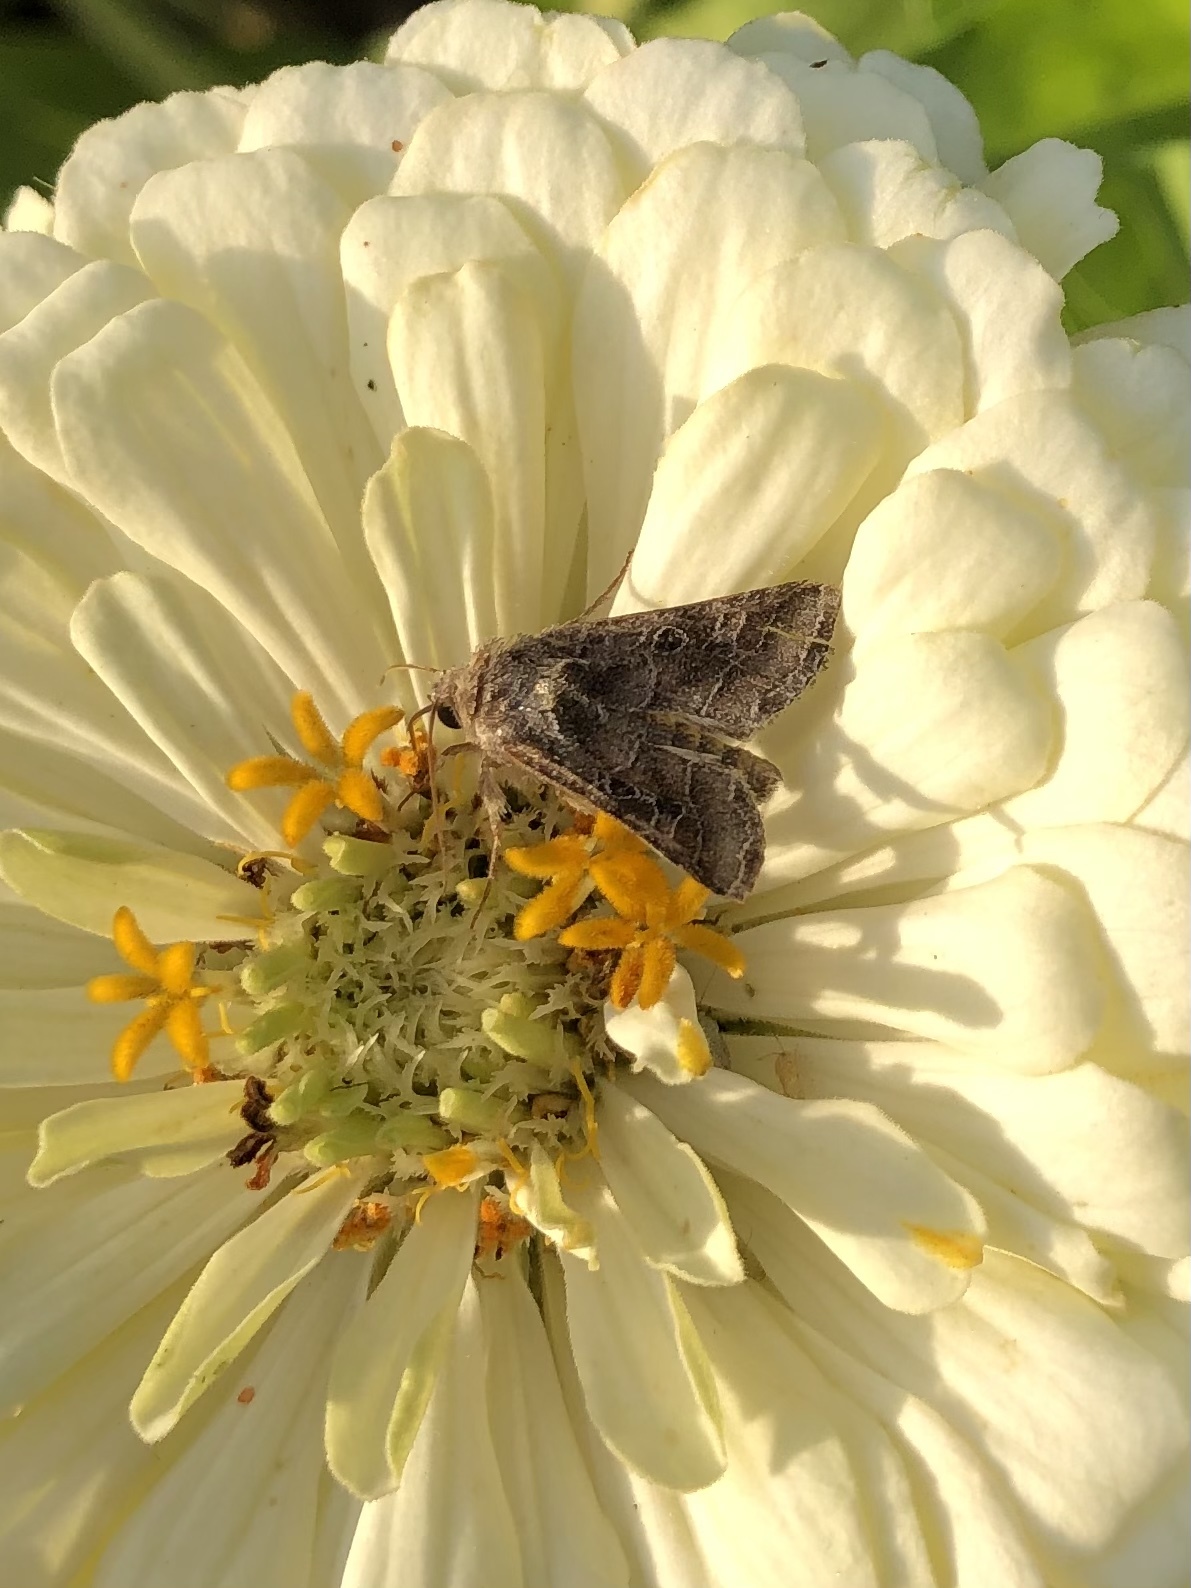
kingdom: Animalia
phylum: Arthropoda
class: Insecta
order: Lepidoptera
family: Noctuidae
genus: Lacinipolia
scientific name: Lacinipolia erecta
